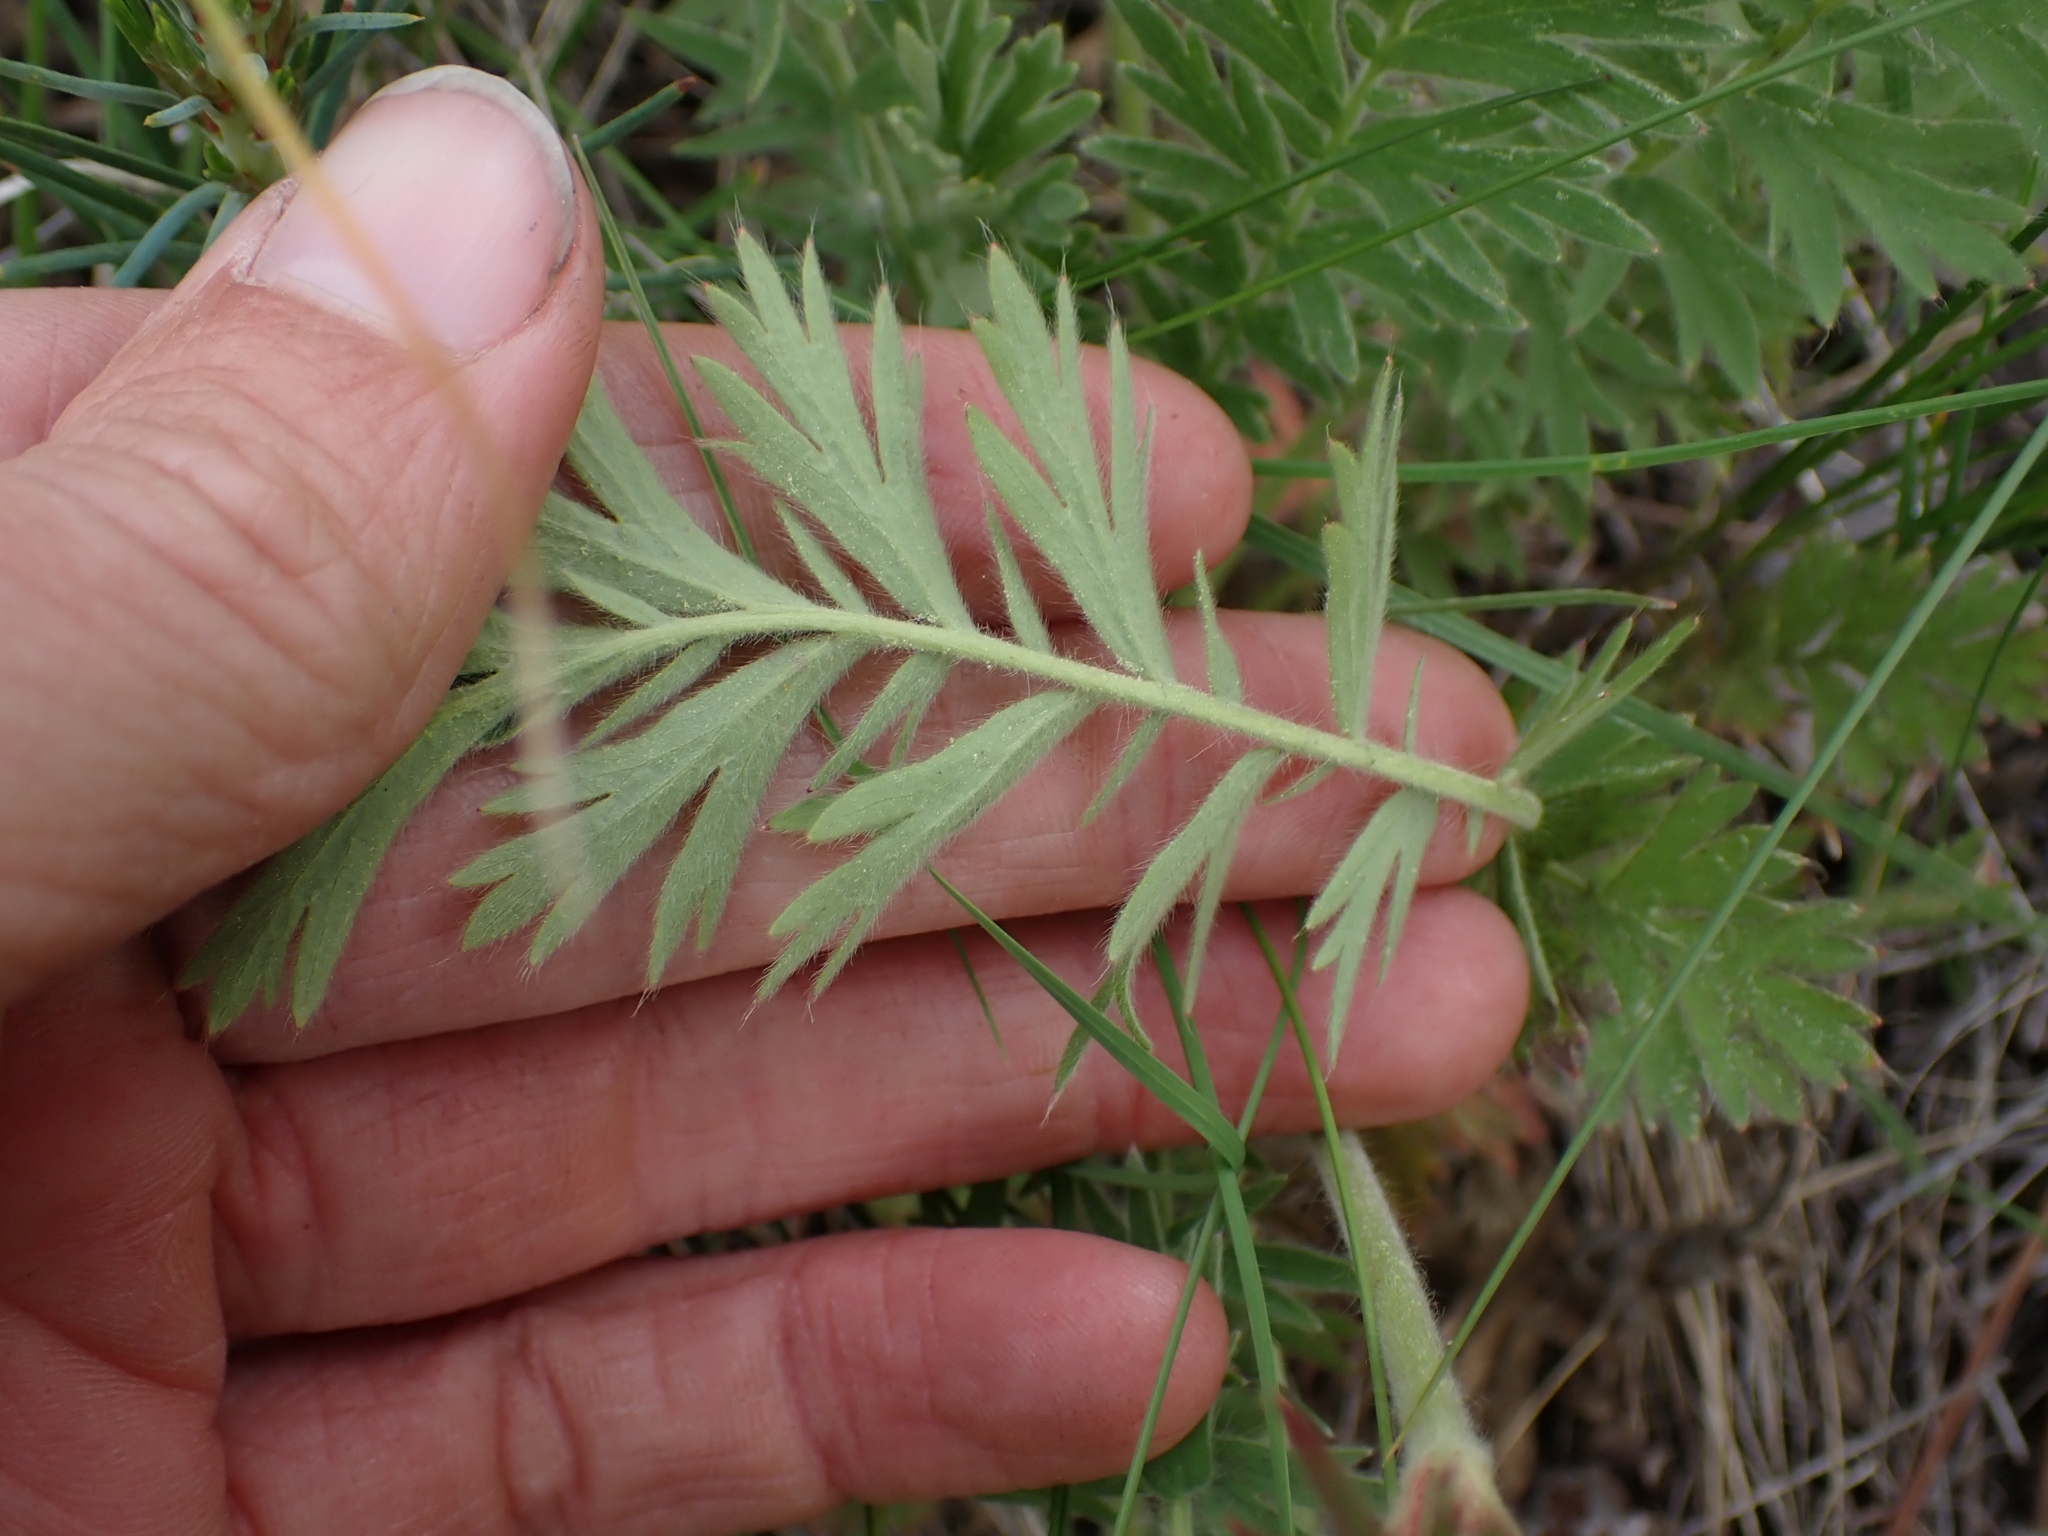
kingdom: Plantae
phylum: Tracheophyta
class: Magnoliopsida
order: Rosales
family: Rosaceae
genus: Geum
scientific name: Geum triflorum
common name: Old man's whiskers
